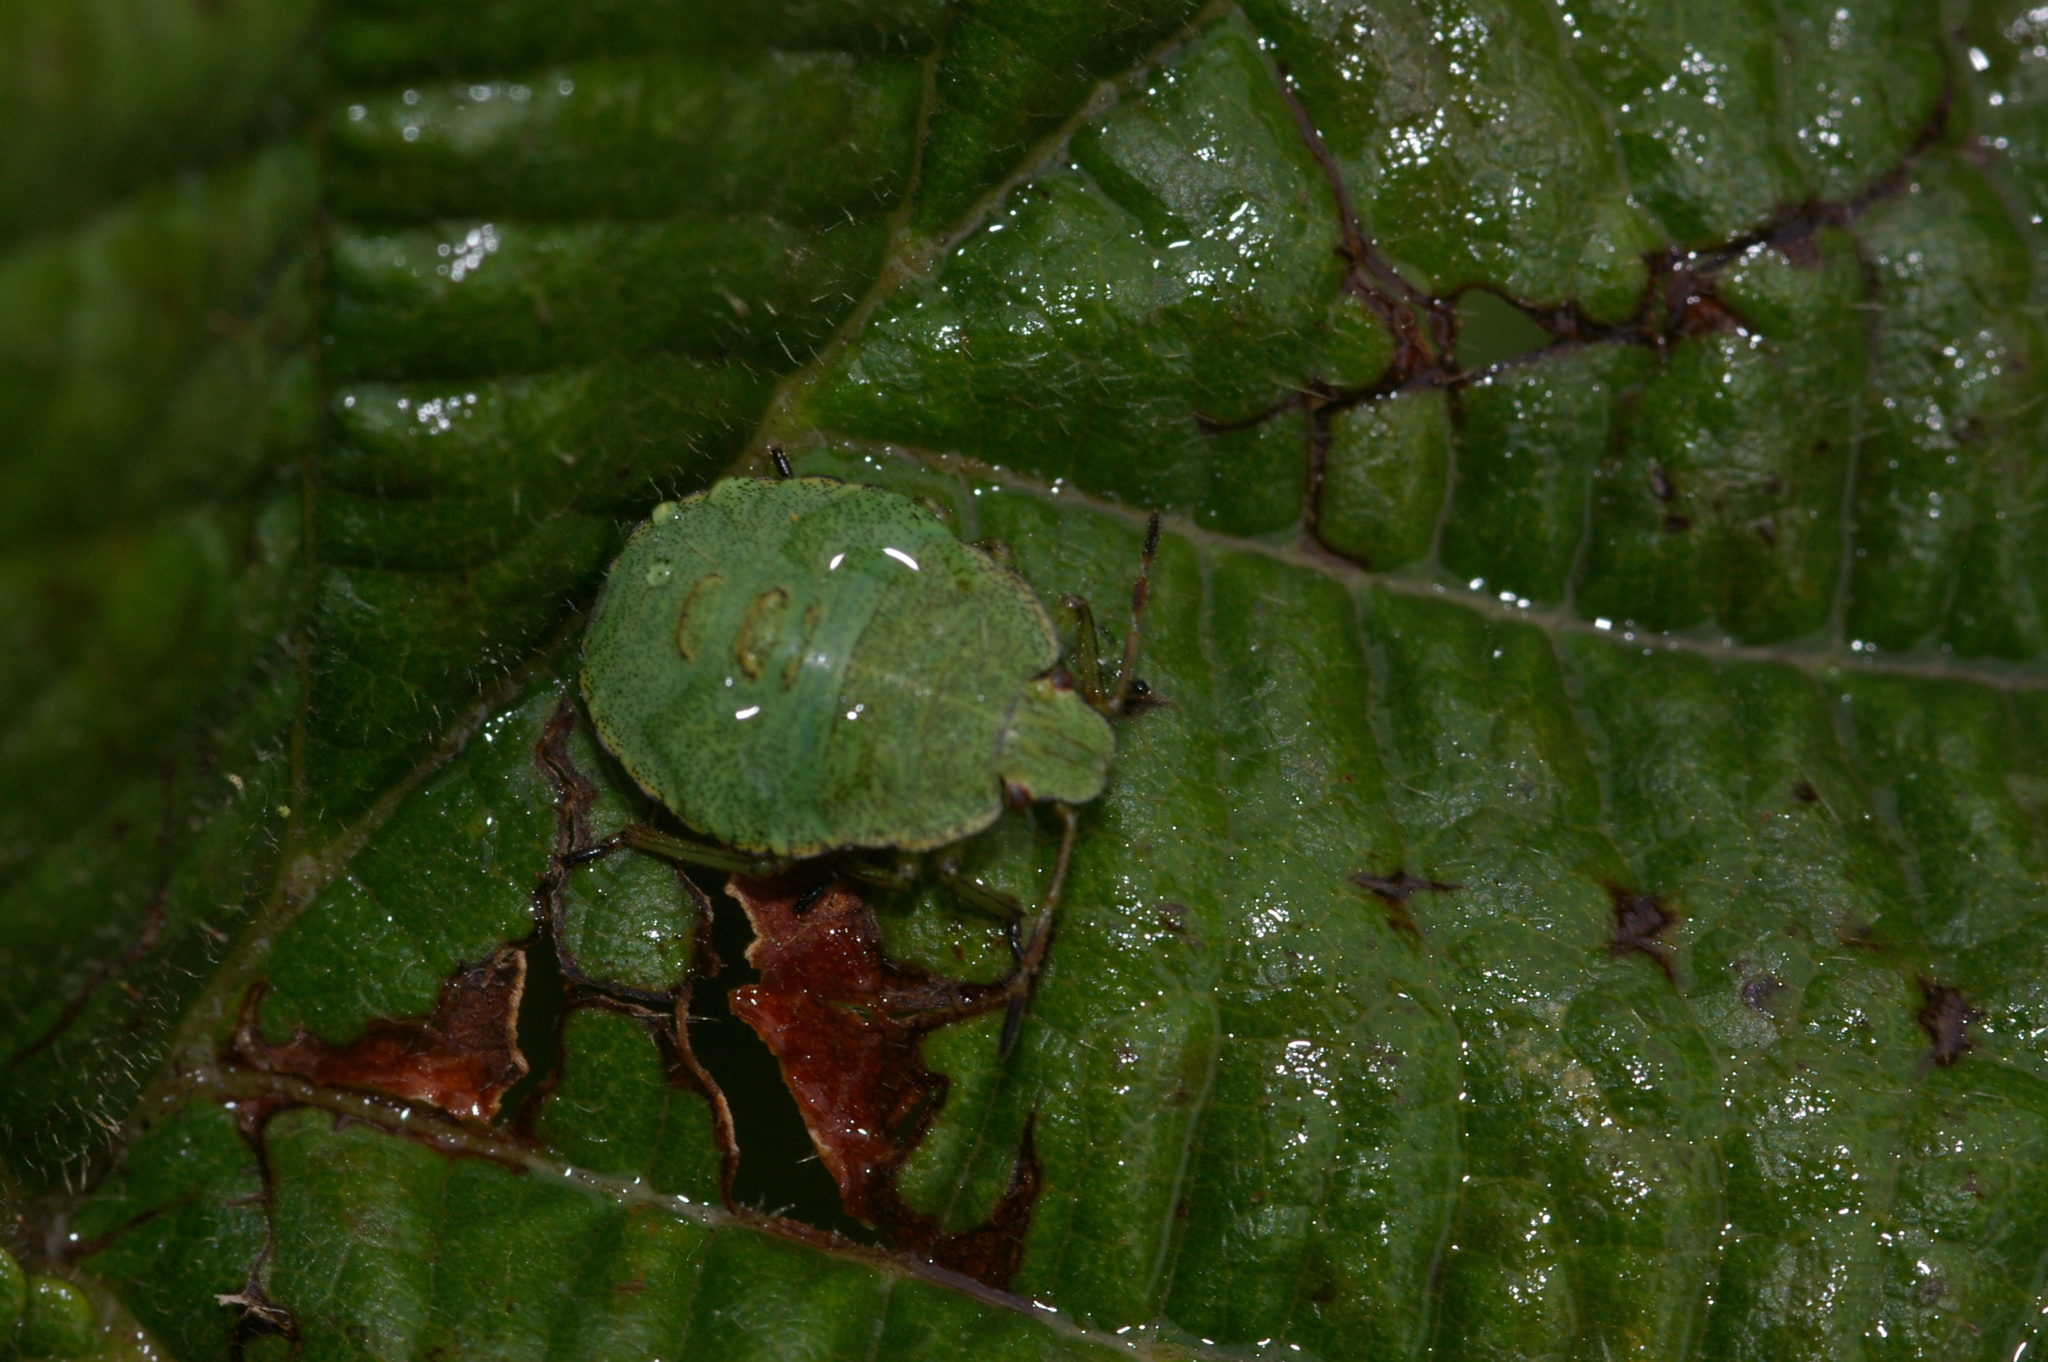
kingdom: Animalia
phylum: Arthropoda
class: Insecta
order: Hemiptera
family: Pentatomidae
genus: Palomena
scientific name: Palomena prasina
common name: Green shieldbug
